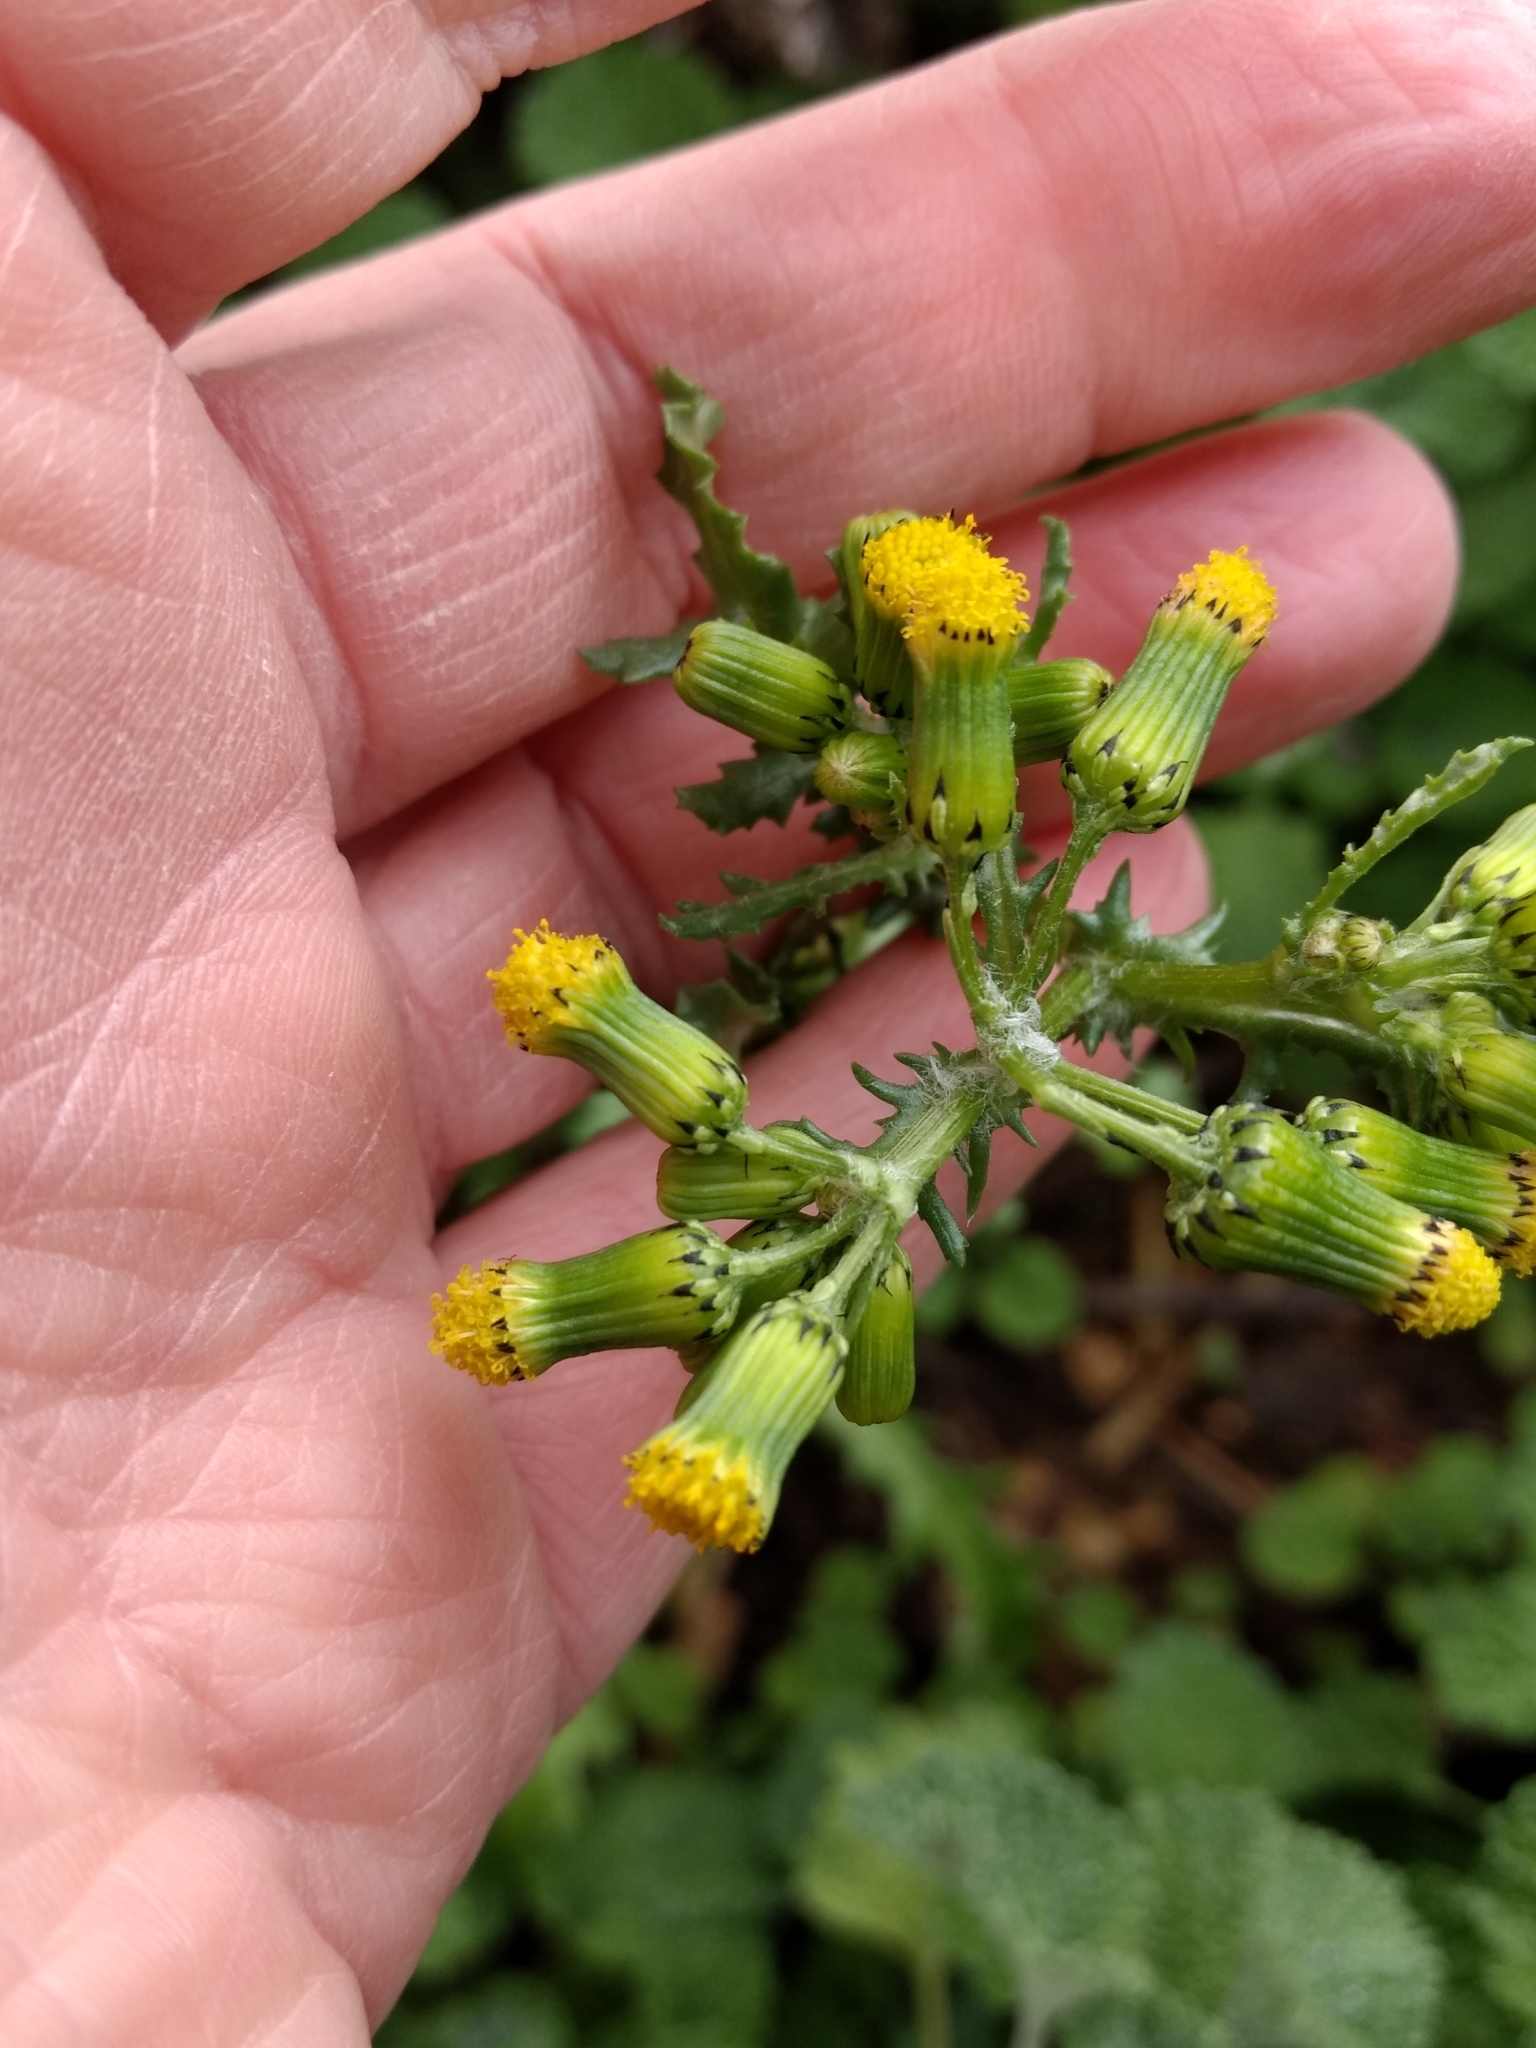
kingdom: Plantae
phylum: Tracheophyta
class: Magnoliopsida
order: Asterales
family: Asteraceae
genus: Senecio
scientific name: Senecio vulgaris
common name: Old-man-in-the-spring
